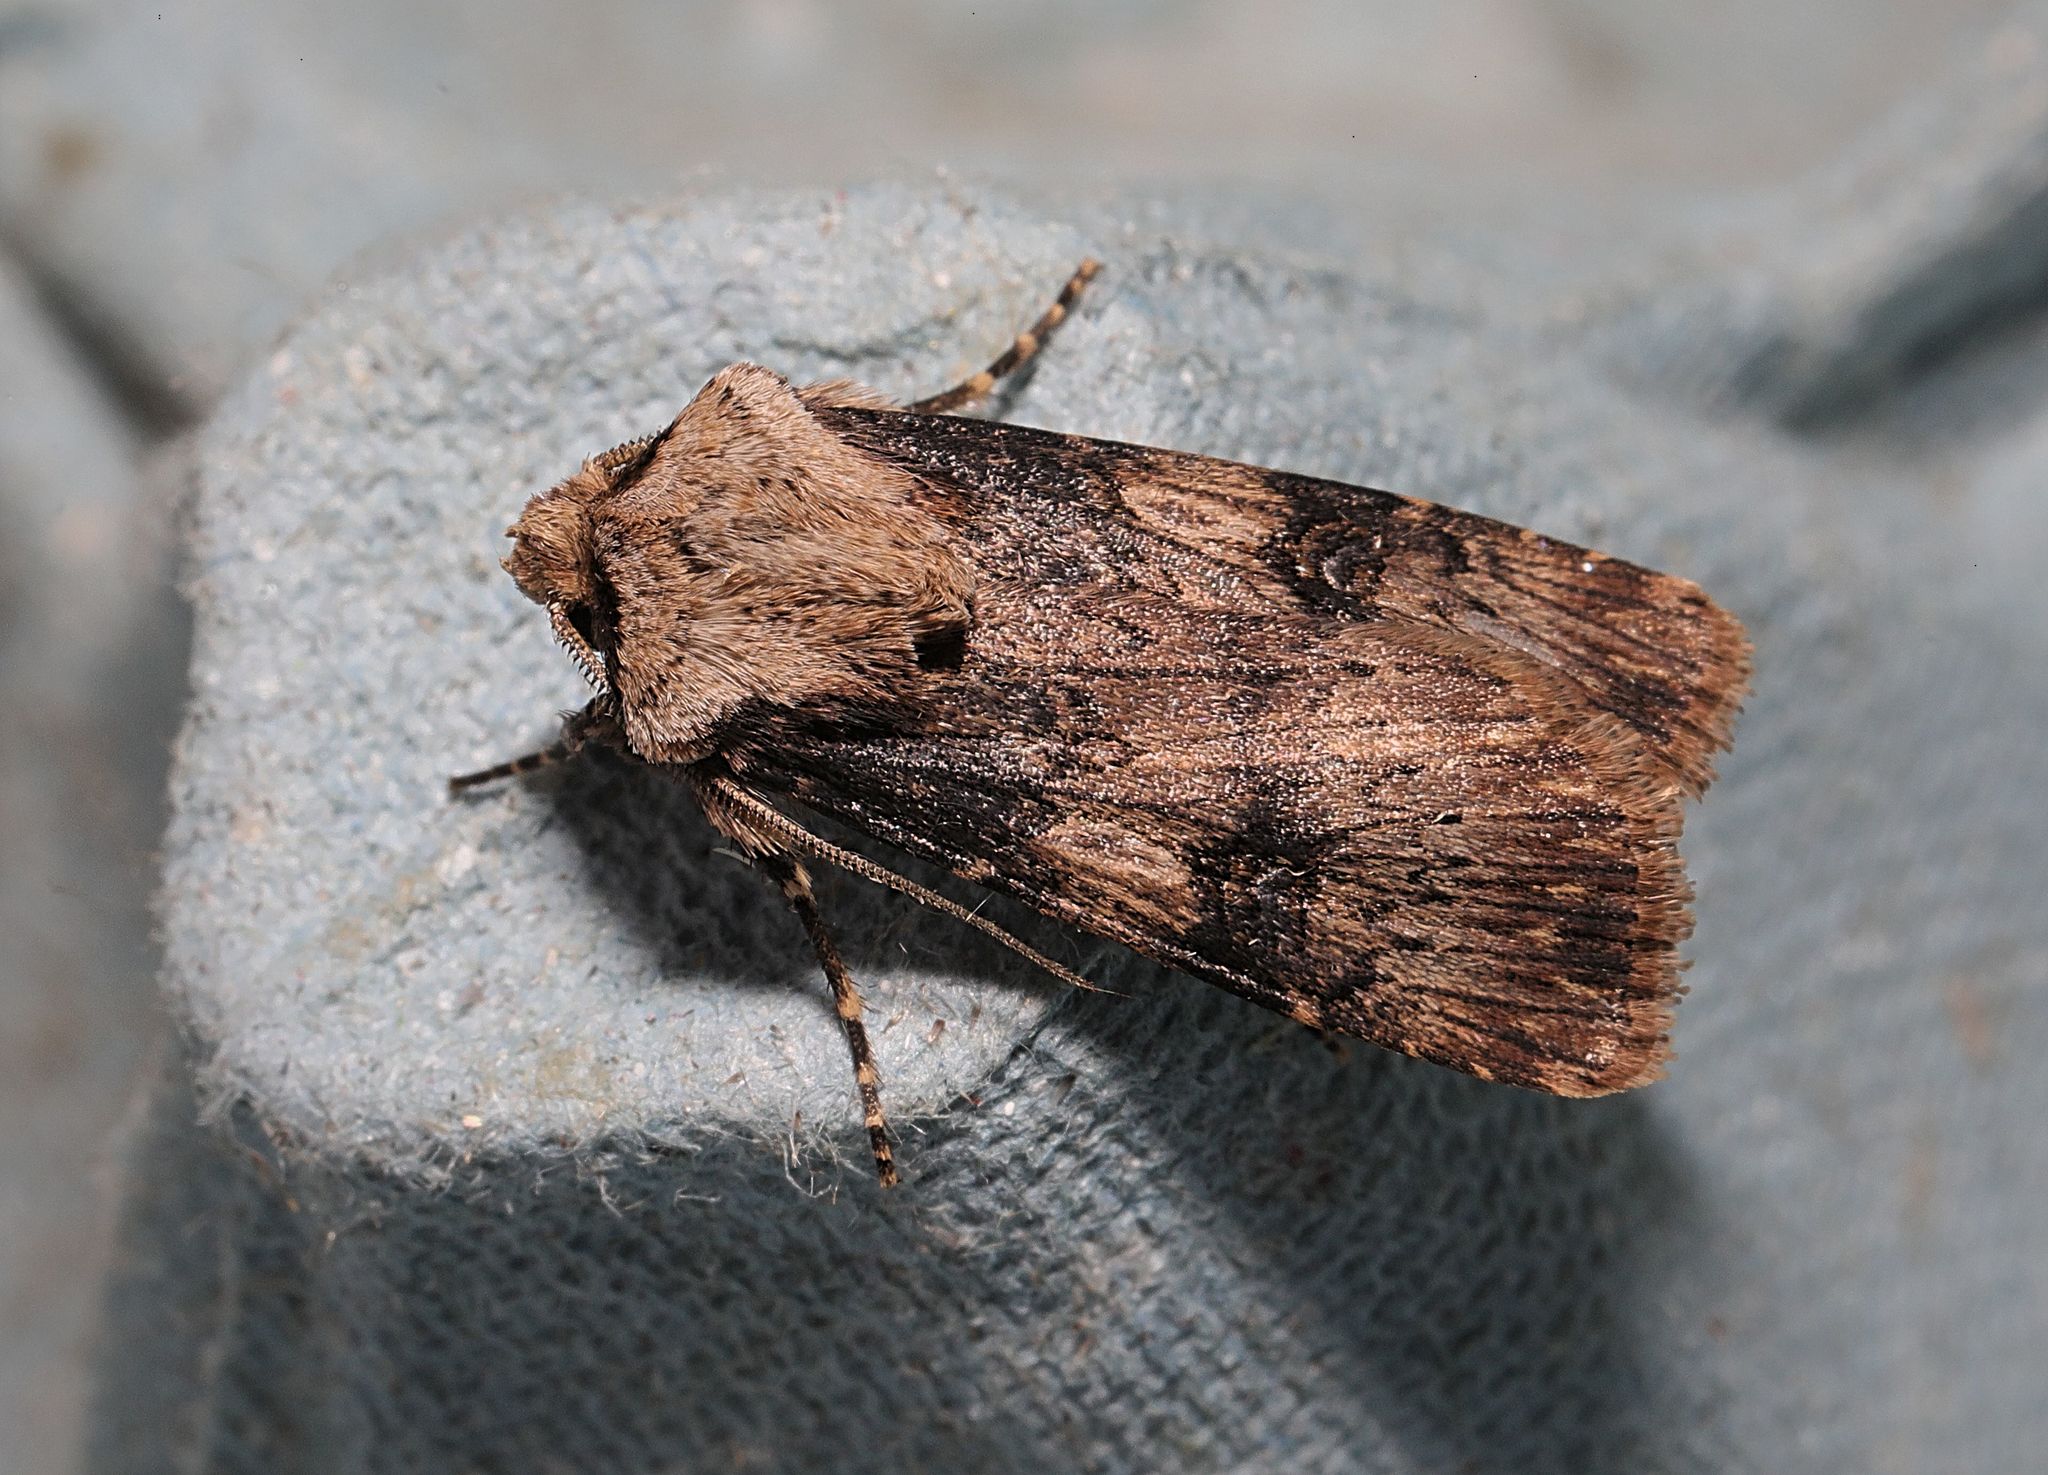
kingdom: Animalia
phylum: Arthropoda
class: Insecta
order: Lepidoptera
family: Noctuidae
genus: Agrotis
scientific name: Agrotis puta
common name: Shuttle-shaped dart
